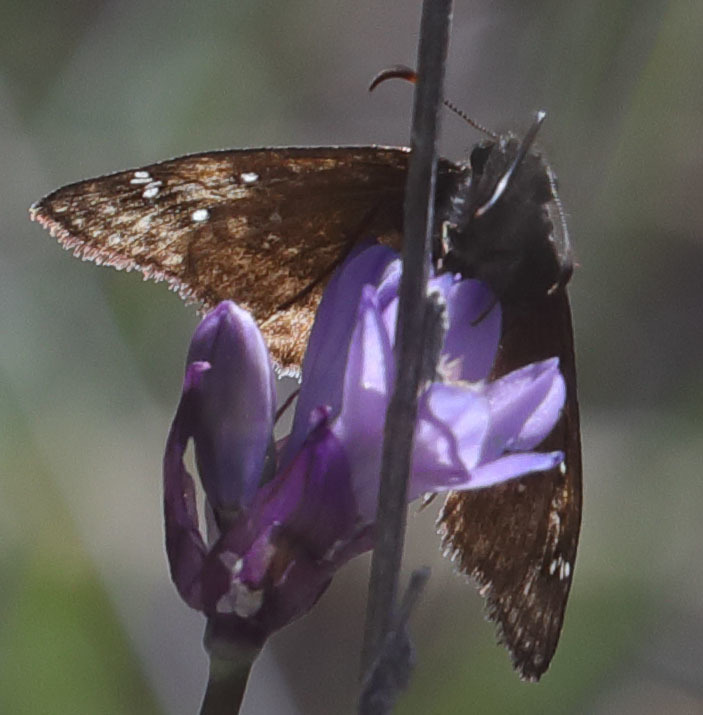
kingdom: Animalia
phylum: Arthropoda
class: Insecta
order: Lepidoptera
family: Hesperiidae
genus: Erynnis
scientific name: Erynnis propertius
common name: Propertius duskywing
